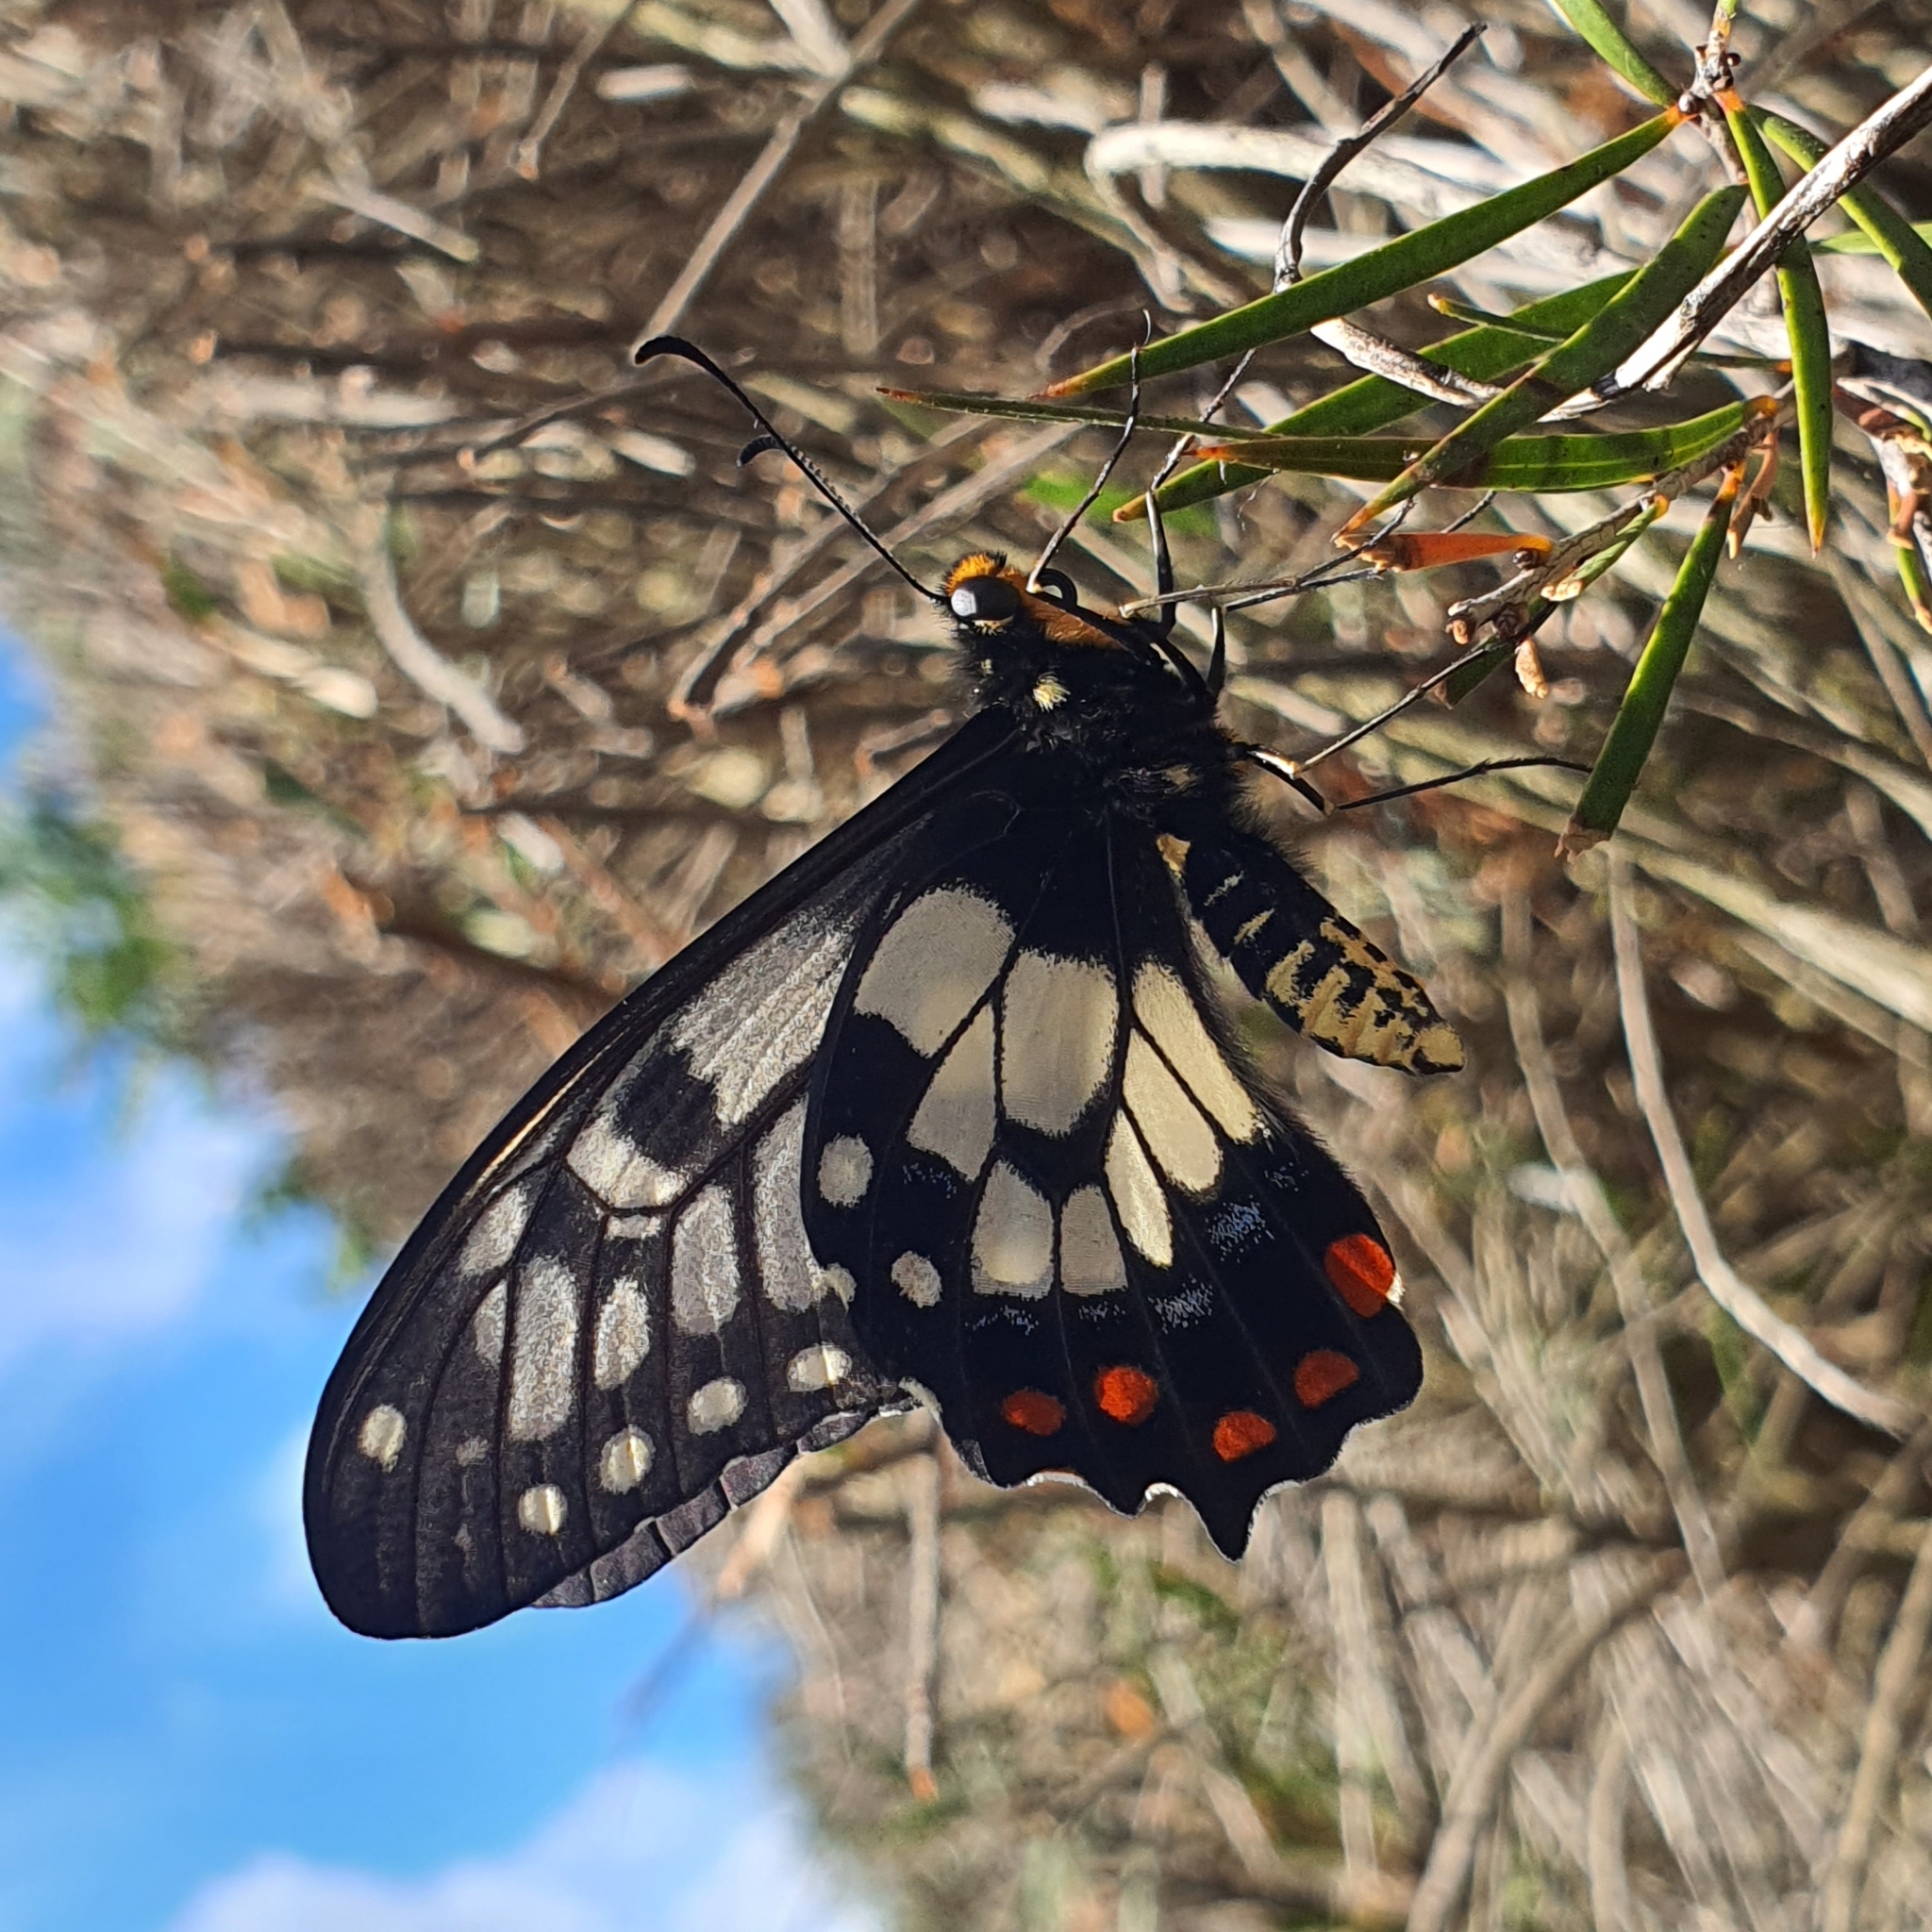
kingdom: Animalia
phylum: Arthropoda
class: Insecta
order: Lepidoptera
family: Papilionidae
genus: Papilio
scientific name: Papilio anactus
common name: Dingy swallowtail
